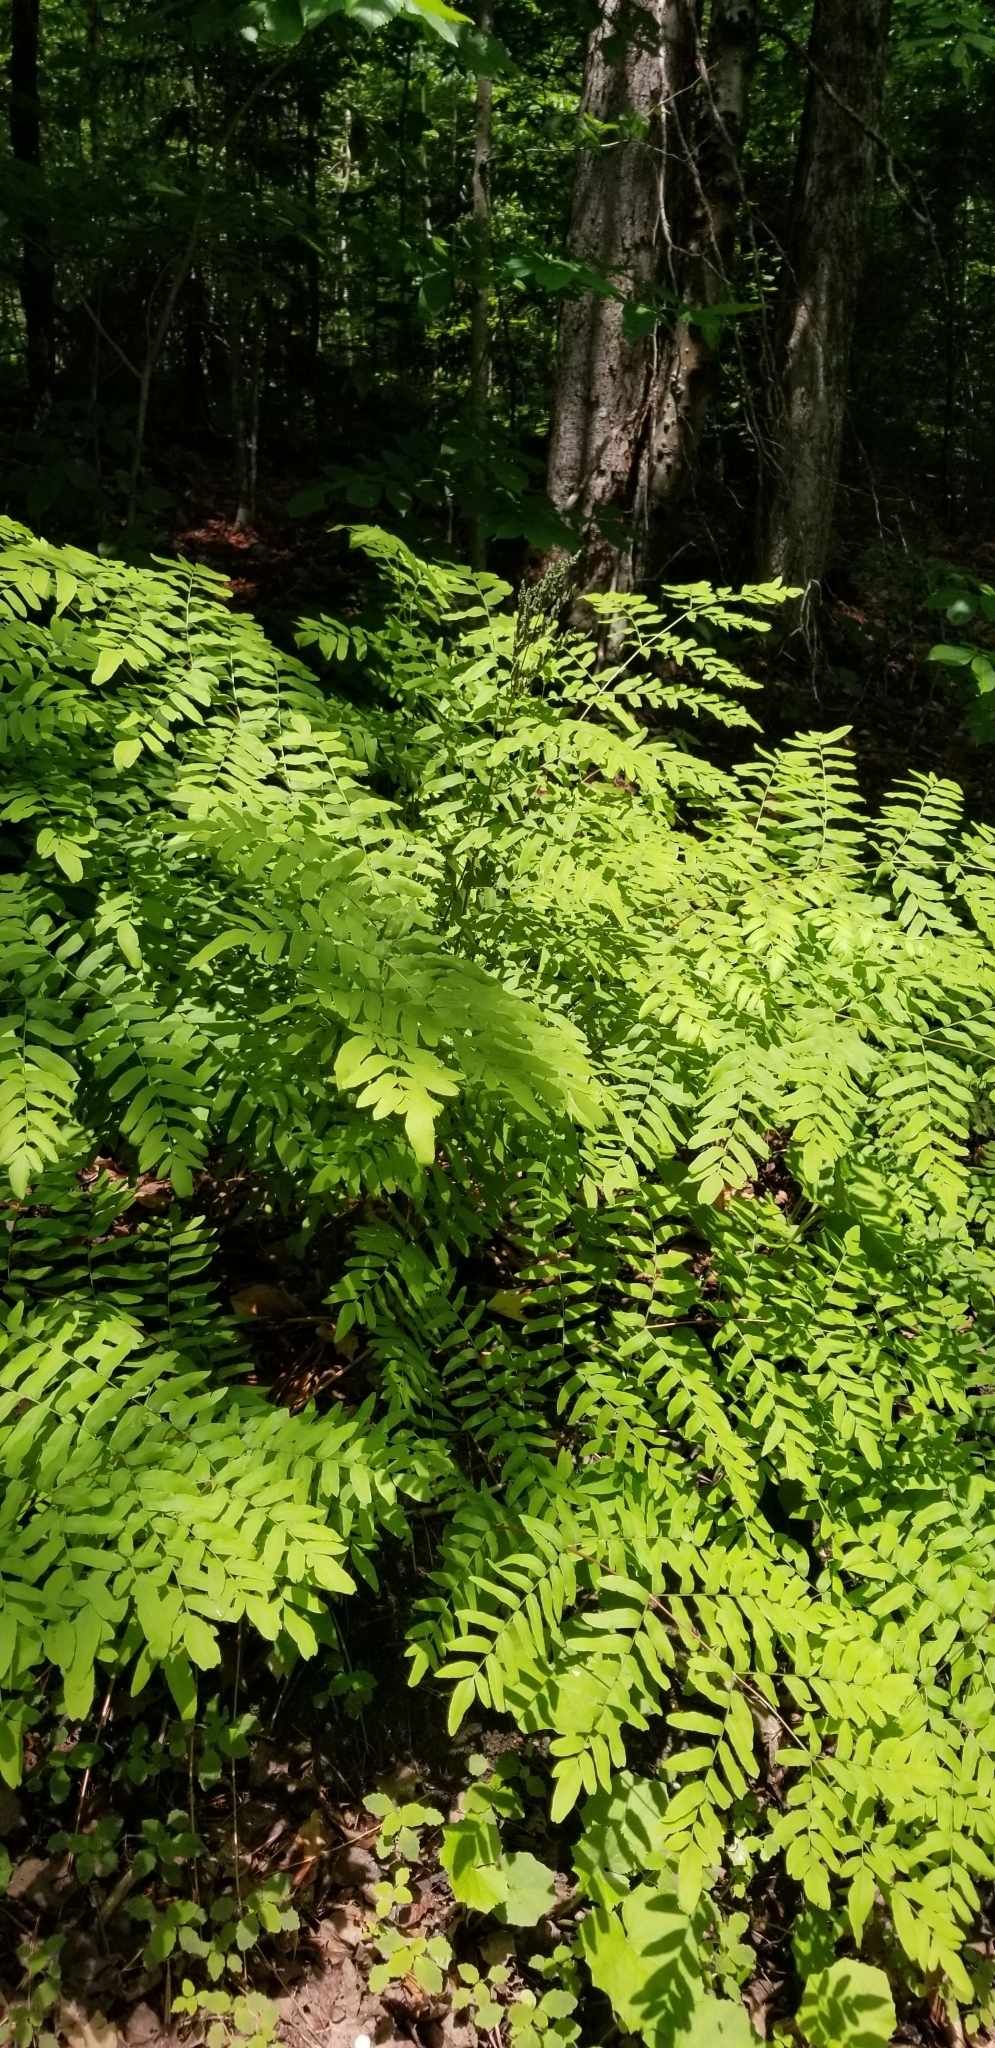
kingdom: Plantae
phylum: Tracheophyta
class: Polypodiopsida
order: Osmundales
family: Osmundaceae
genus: Osmunda
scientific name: Osmunda spectabilis
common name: American royal fern
